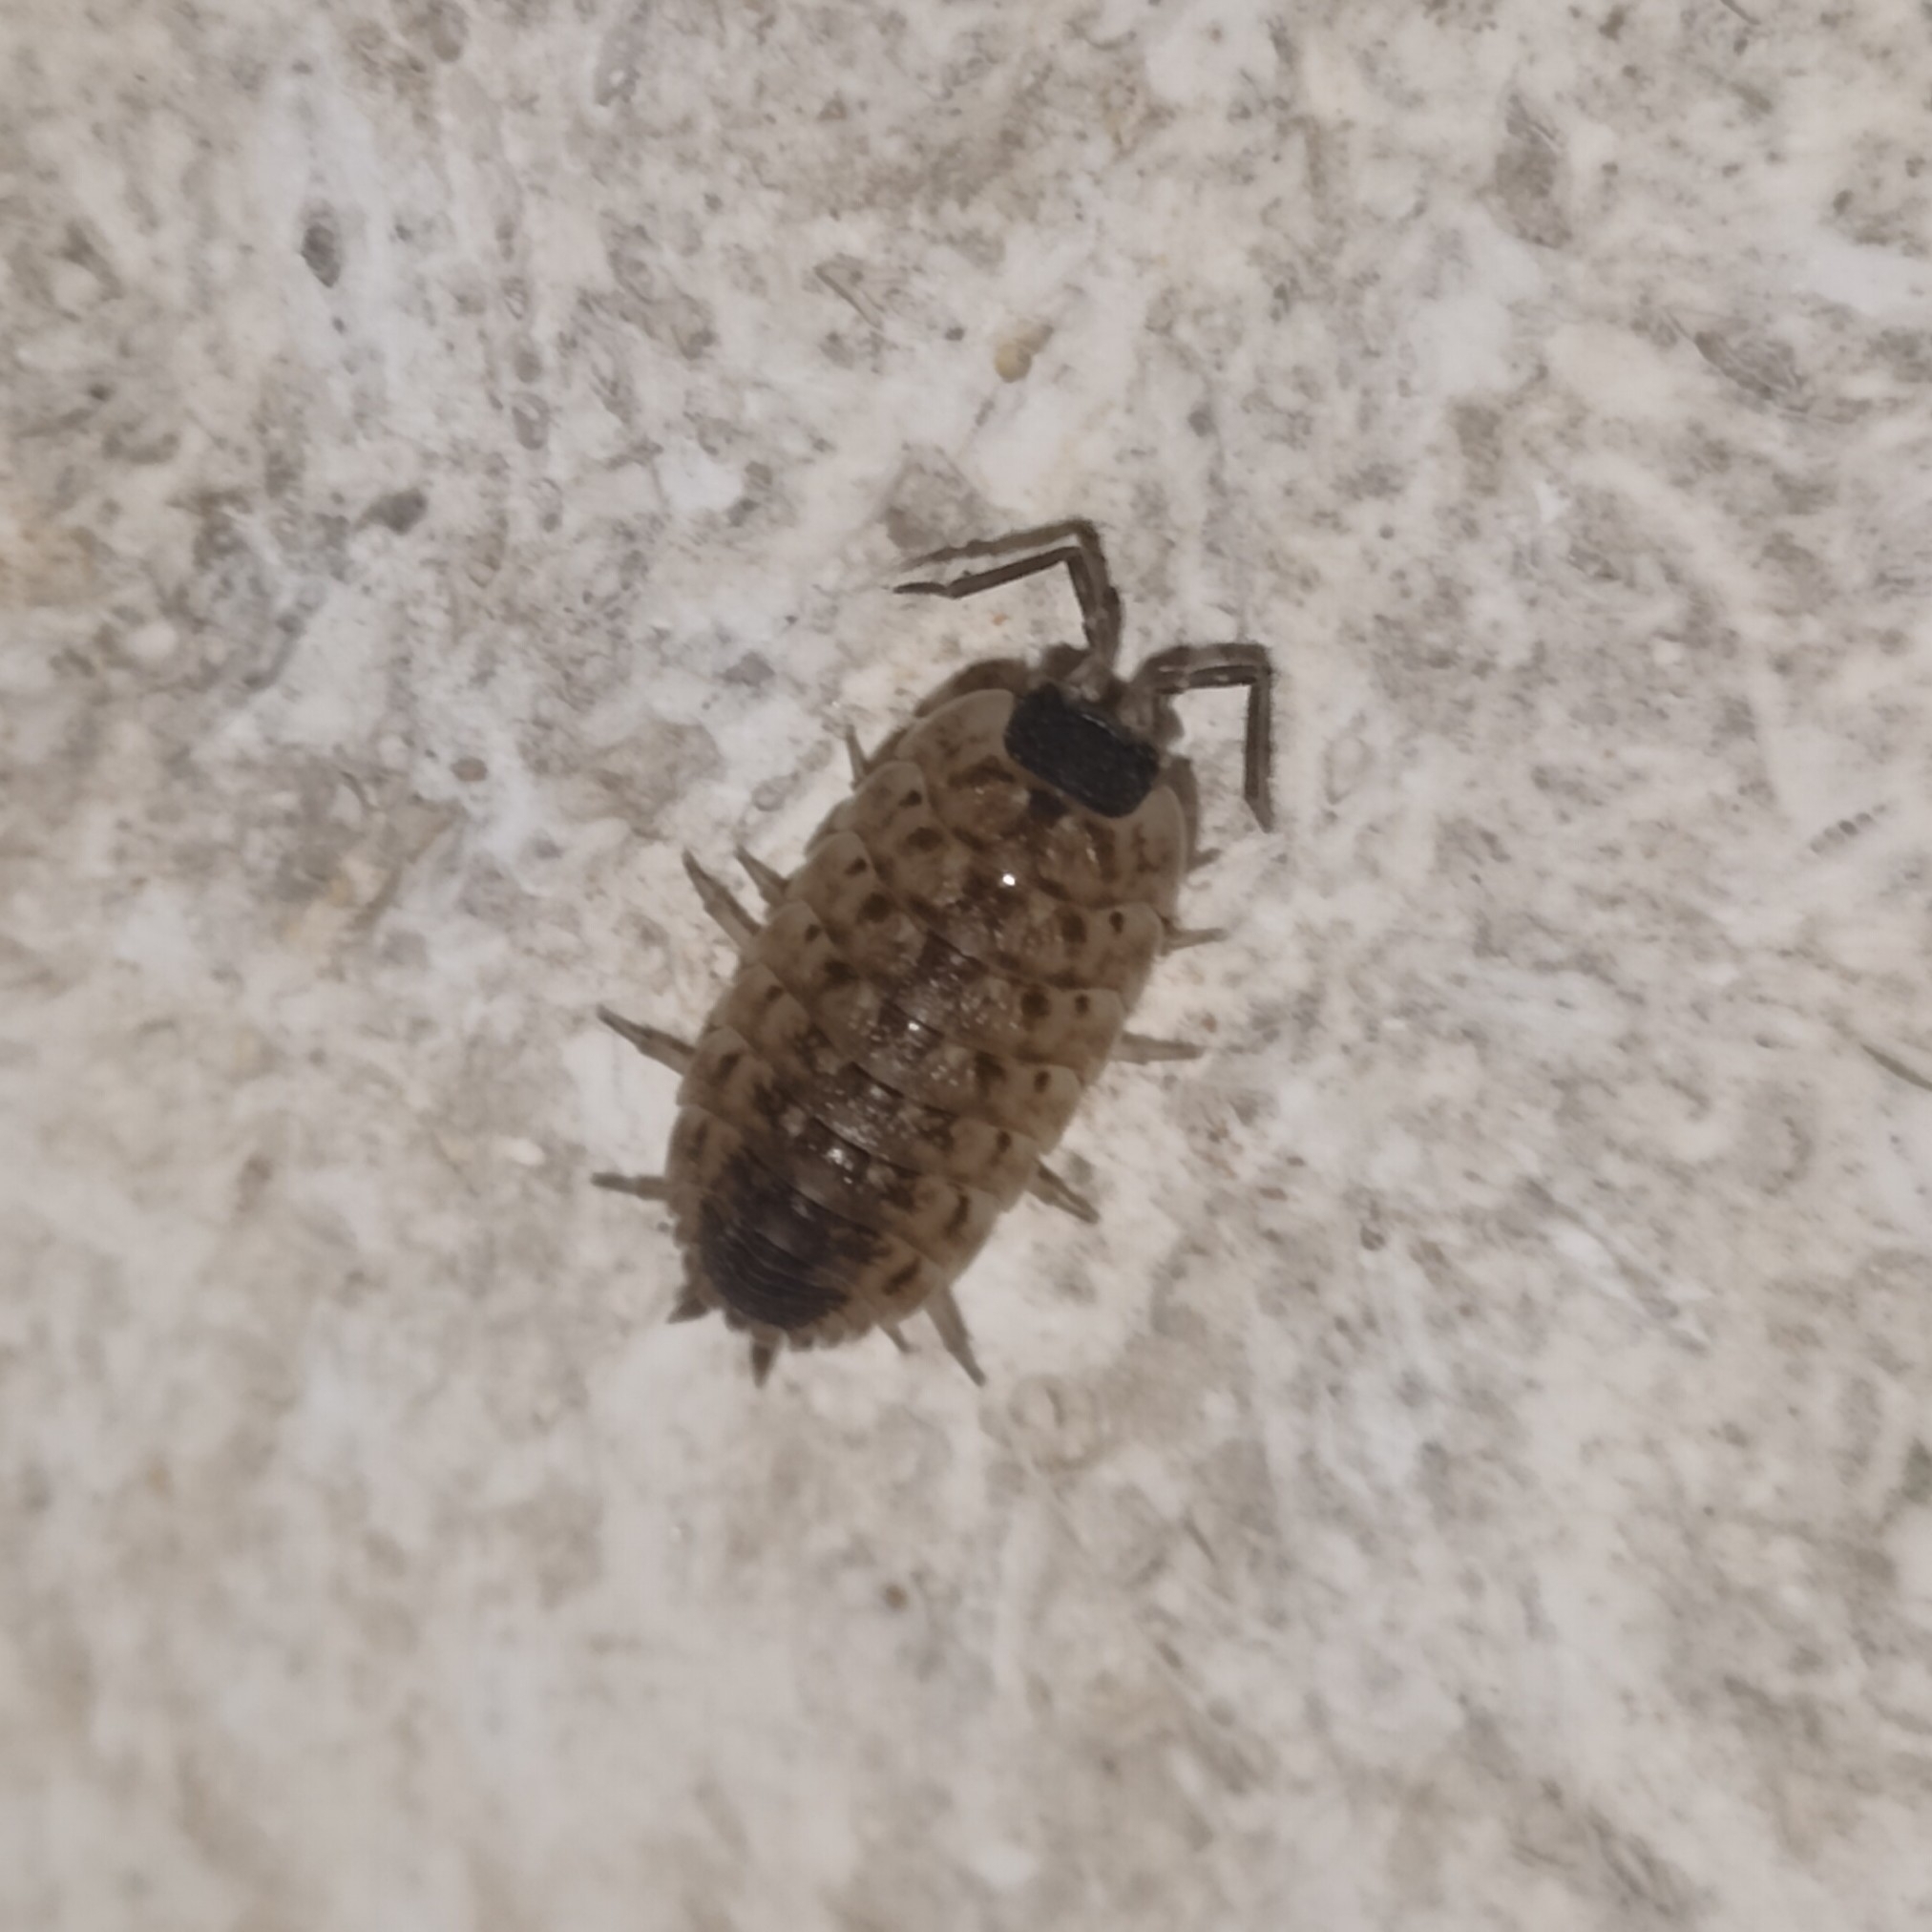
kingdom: Animalia
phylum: Arthropoda
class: Malacostraca
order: Isopoda
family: Porcellionidae
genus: Porcellio
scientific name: Porcellio spinicornis
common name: Painted woodlouse
